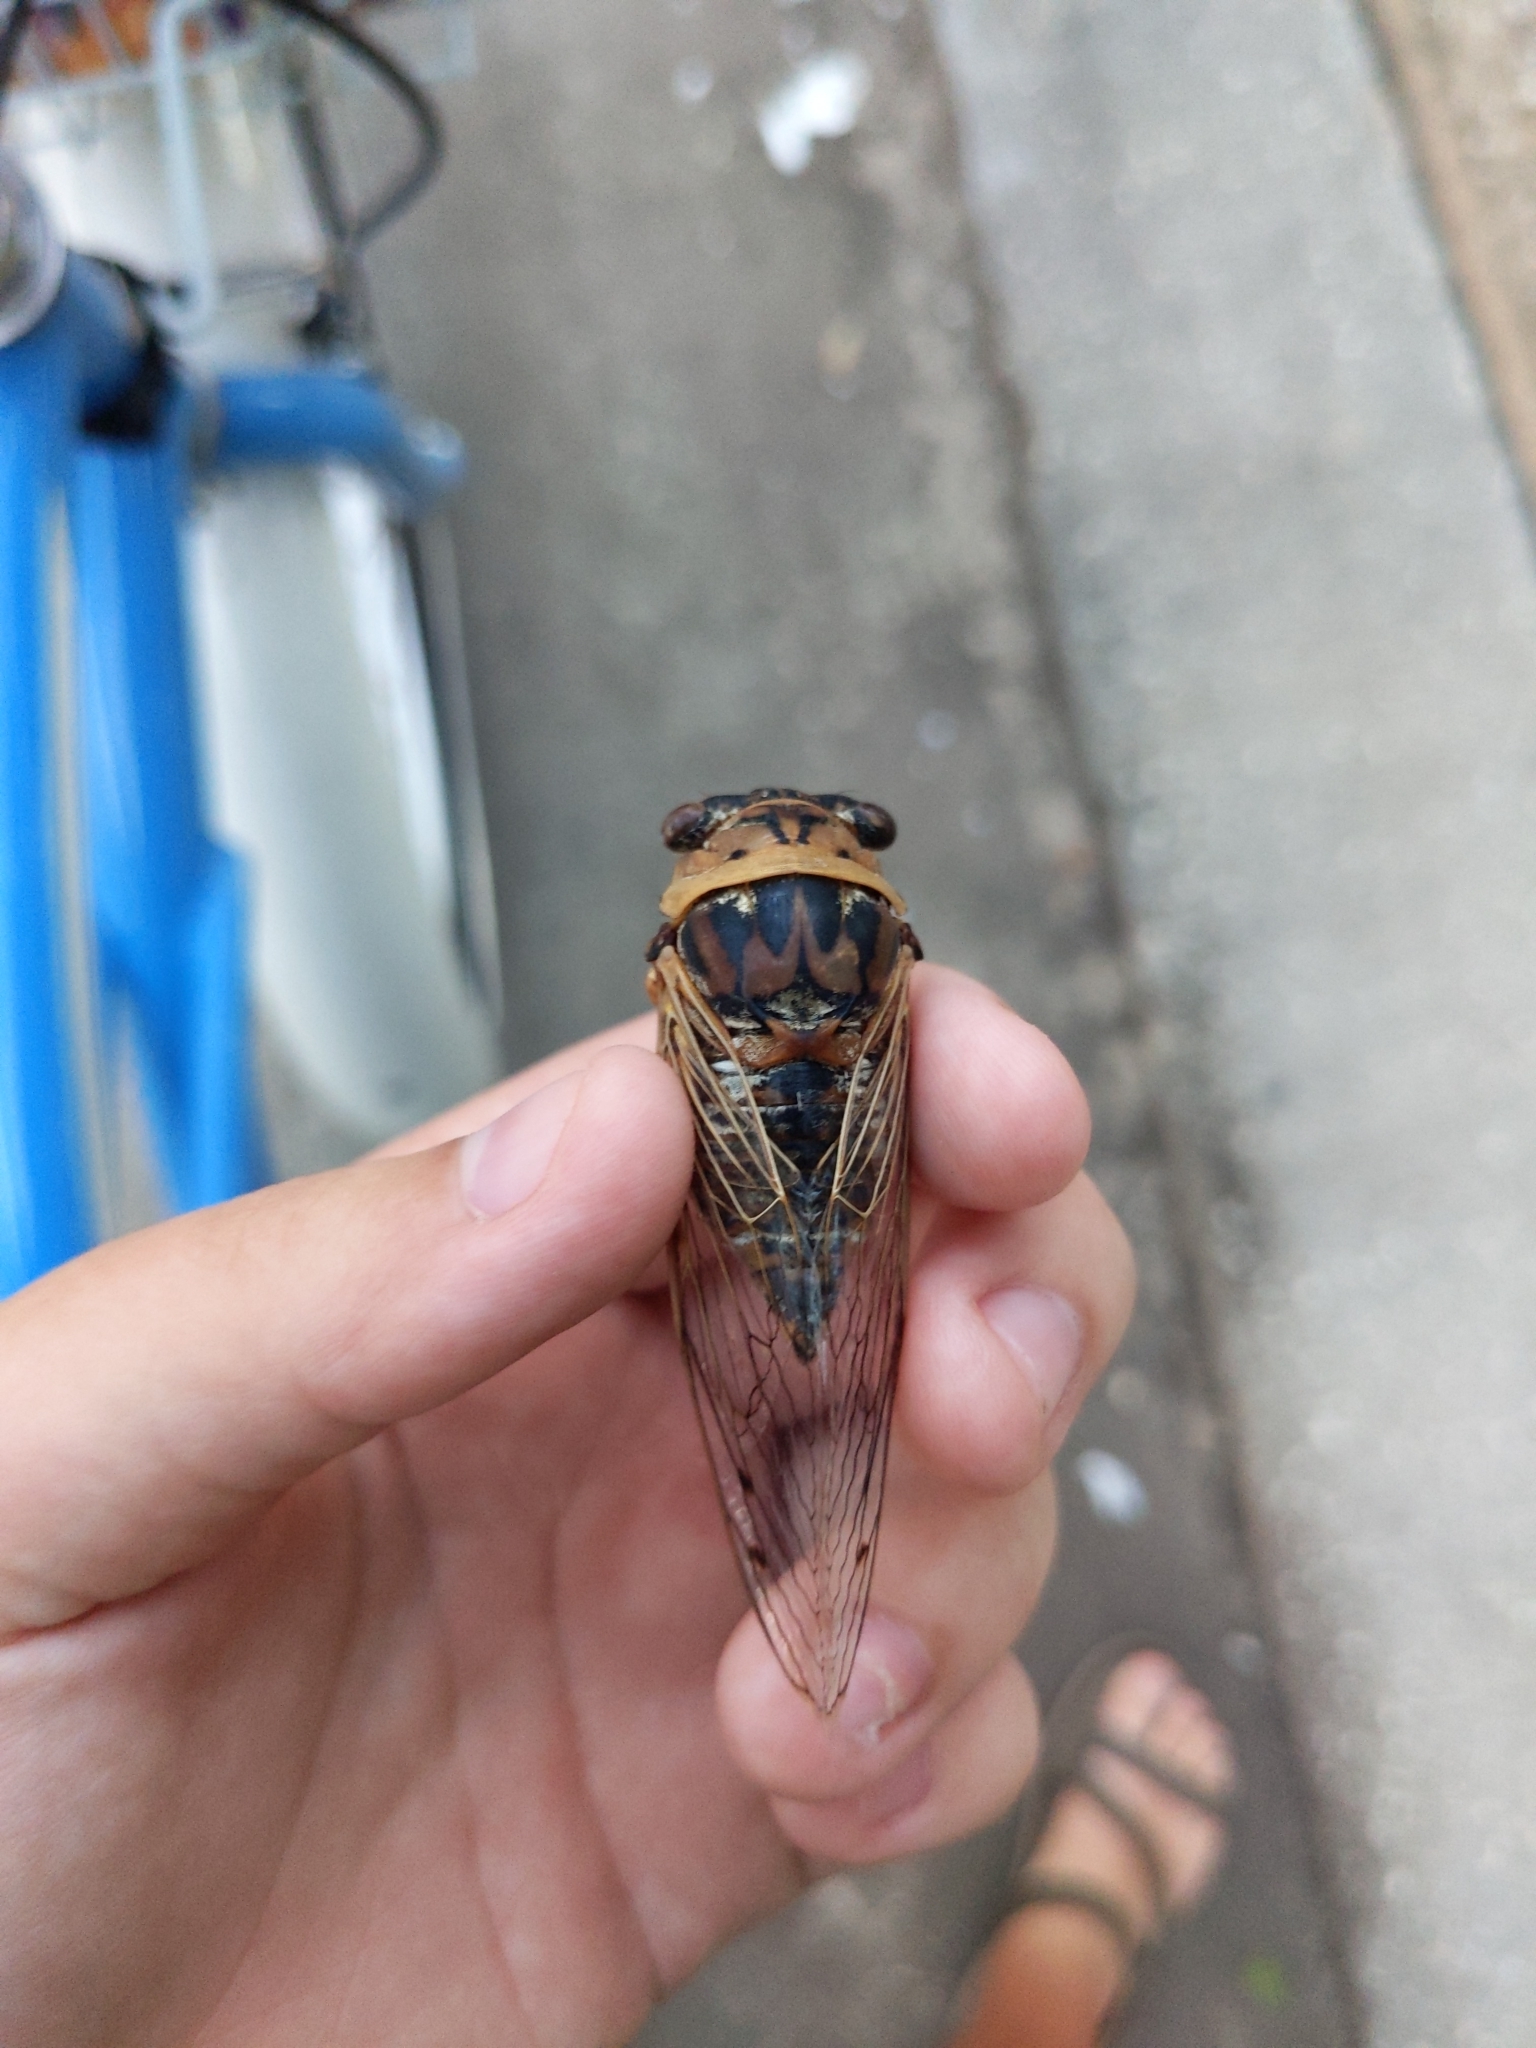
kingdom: Animalia
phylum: Arthropoda
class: Insecta
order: Hemiptera
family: Cicadidae
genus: Megatibicen
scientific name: Megatibicen resh
